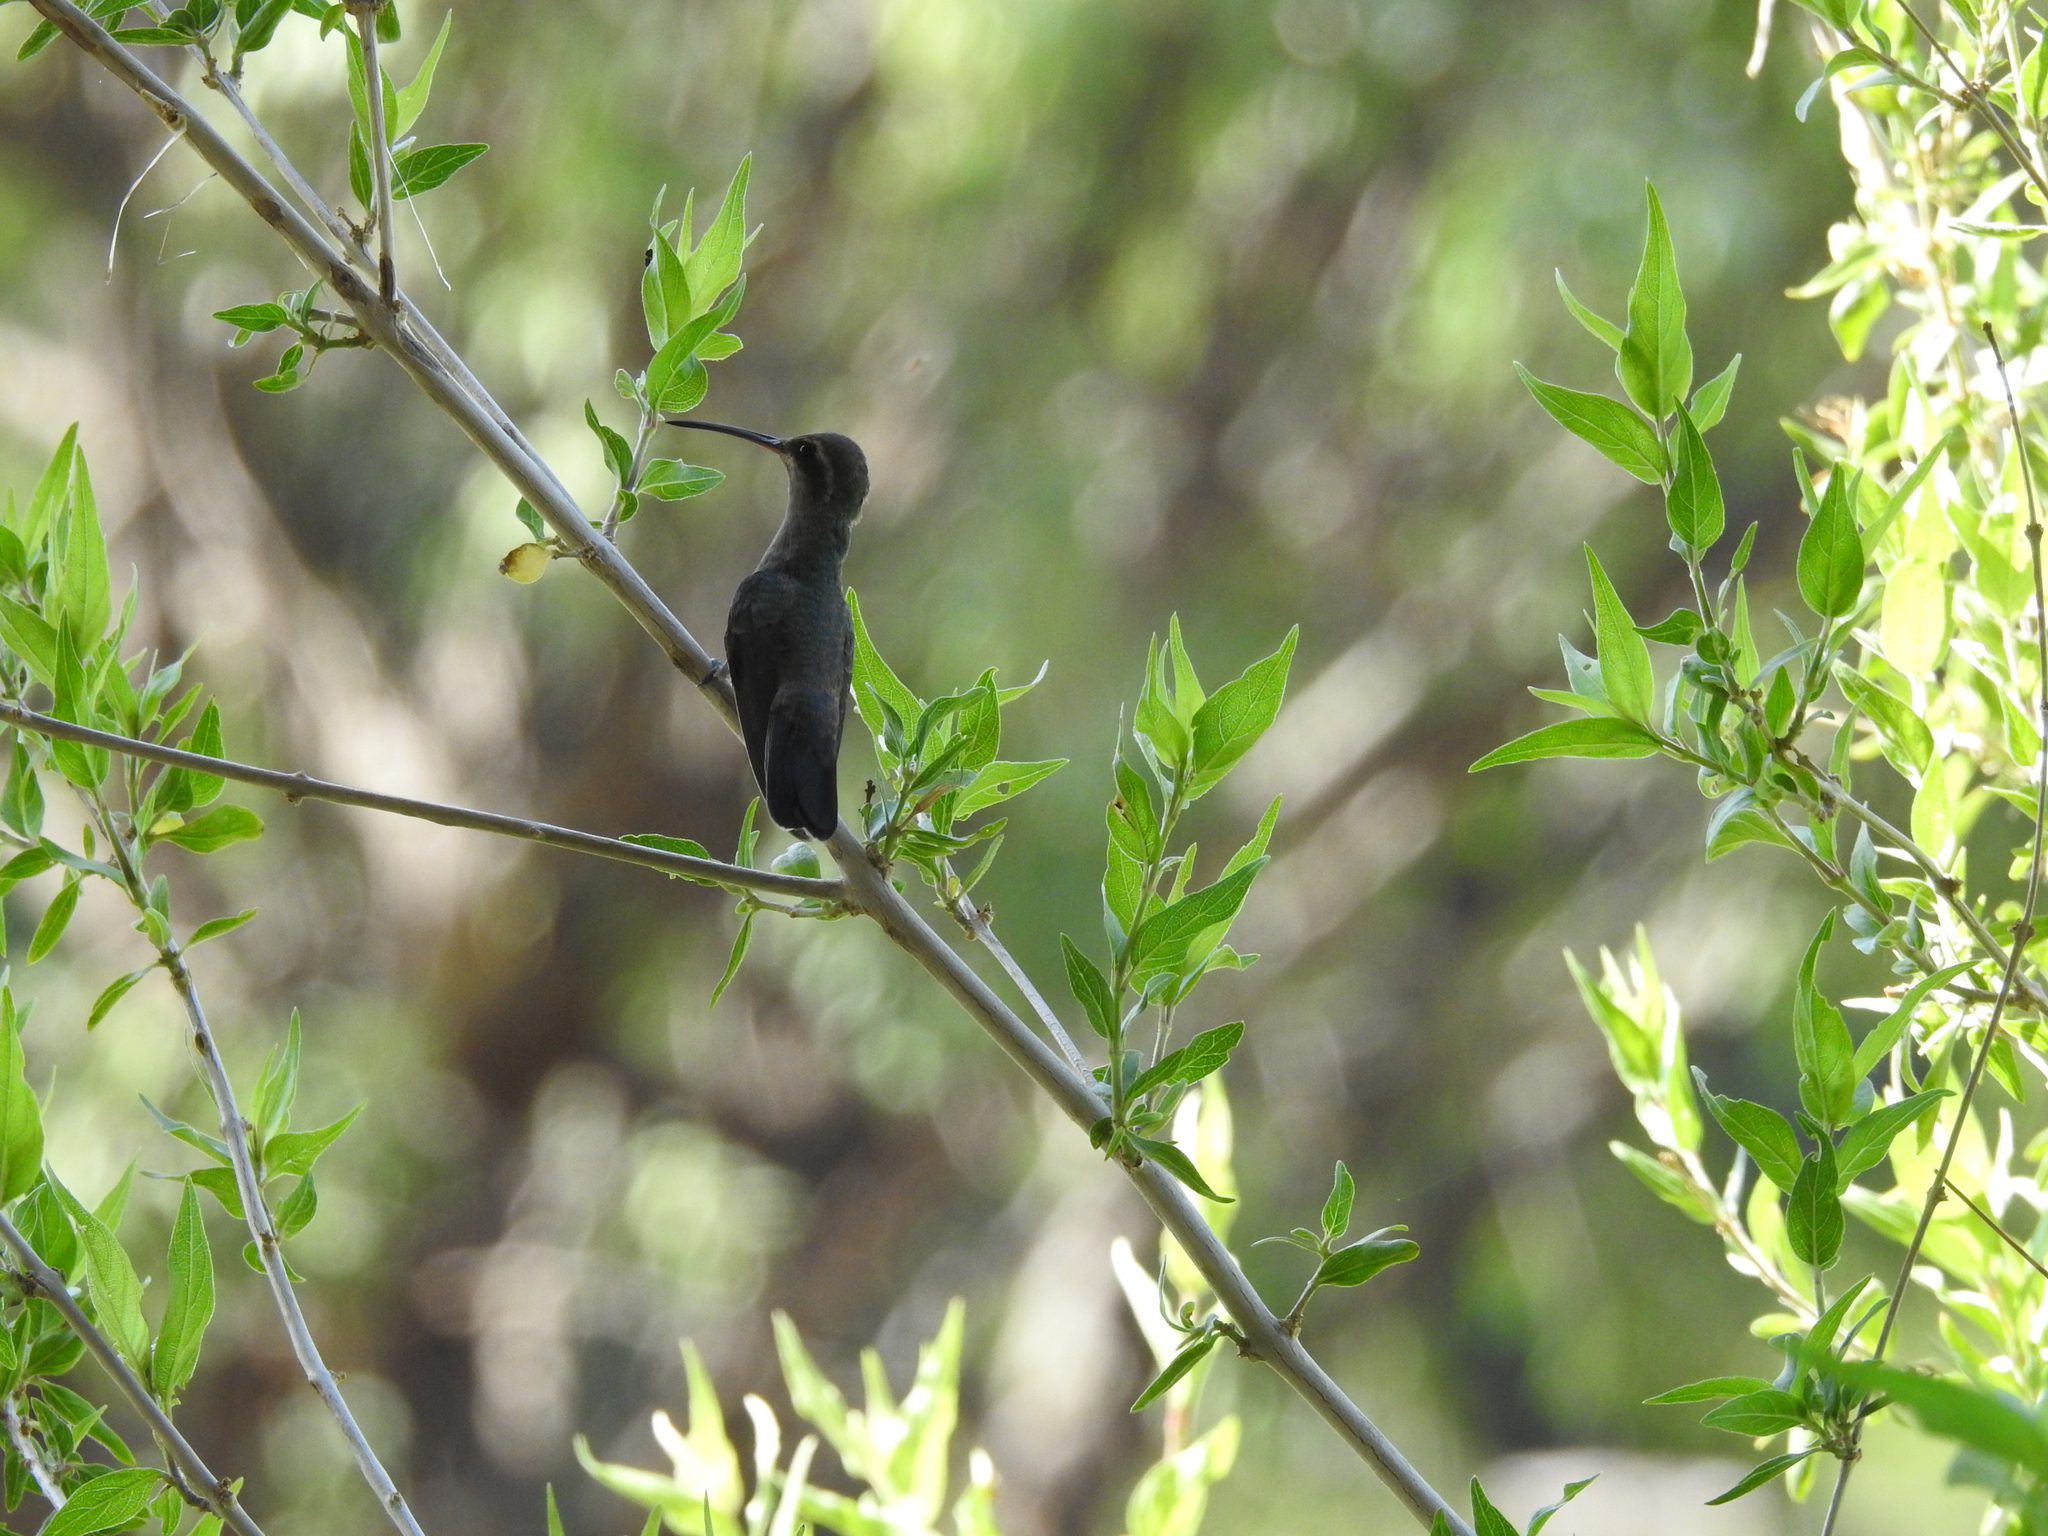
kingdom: Animalia
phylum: Chordata
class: Aves
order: Apodiformes
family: Trochilidae
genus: Cynanthus
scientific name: Cynanthus latirostris
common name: Broad-billed hummingbird
